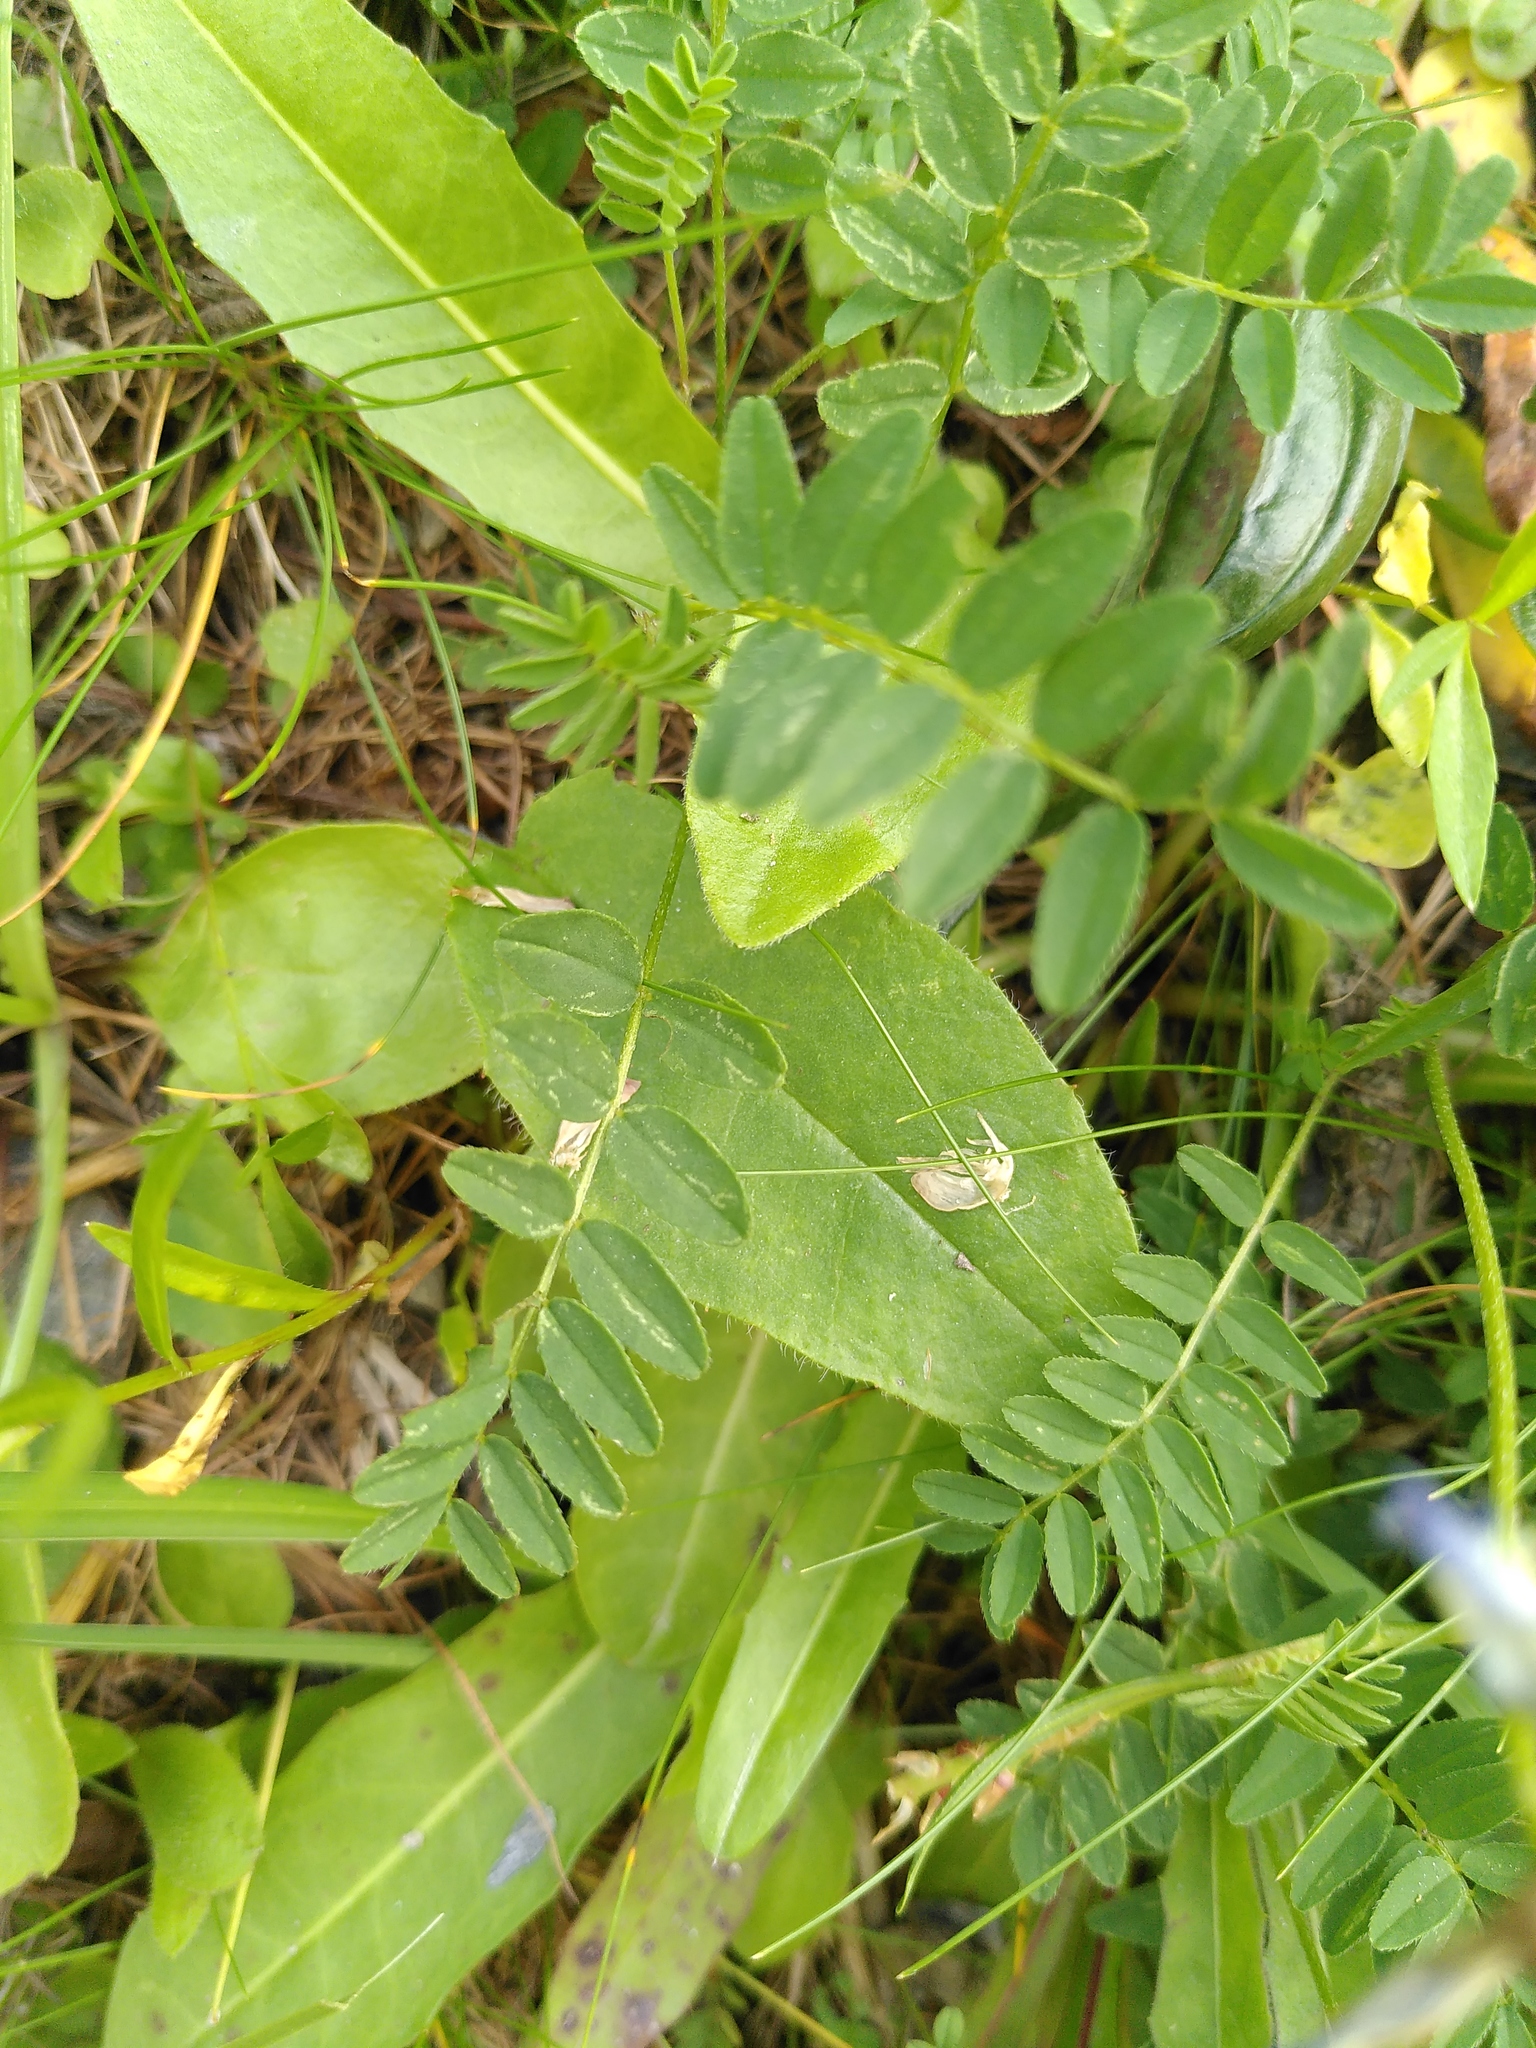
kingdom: Plantae
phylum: Tracheophyta
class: Magnoliopsida
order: Fabales
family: Fabaceae
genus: Astragalus
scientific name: Astragalus alpinus
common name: Alpine milk-vetch
